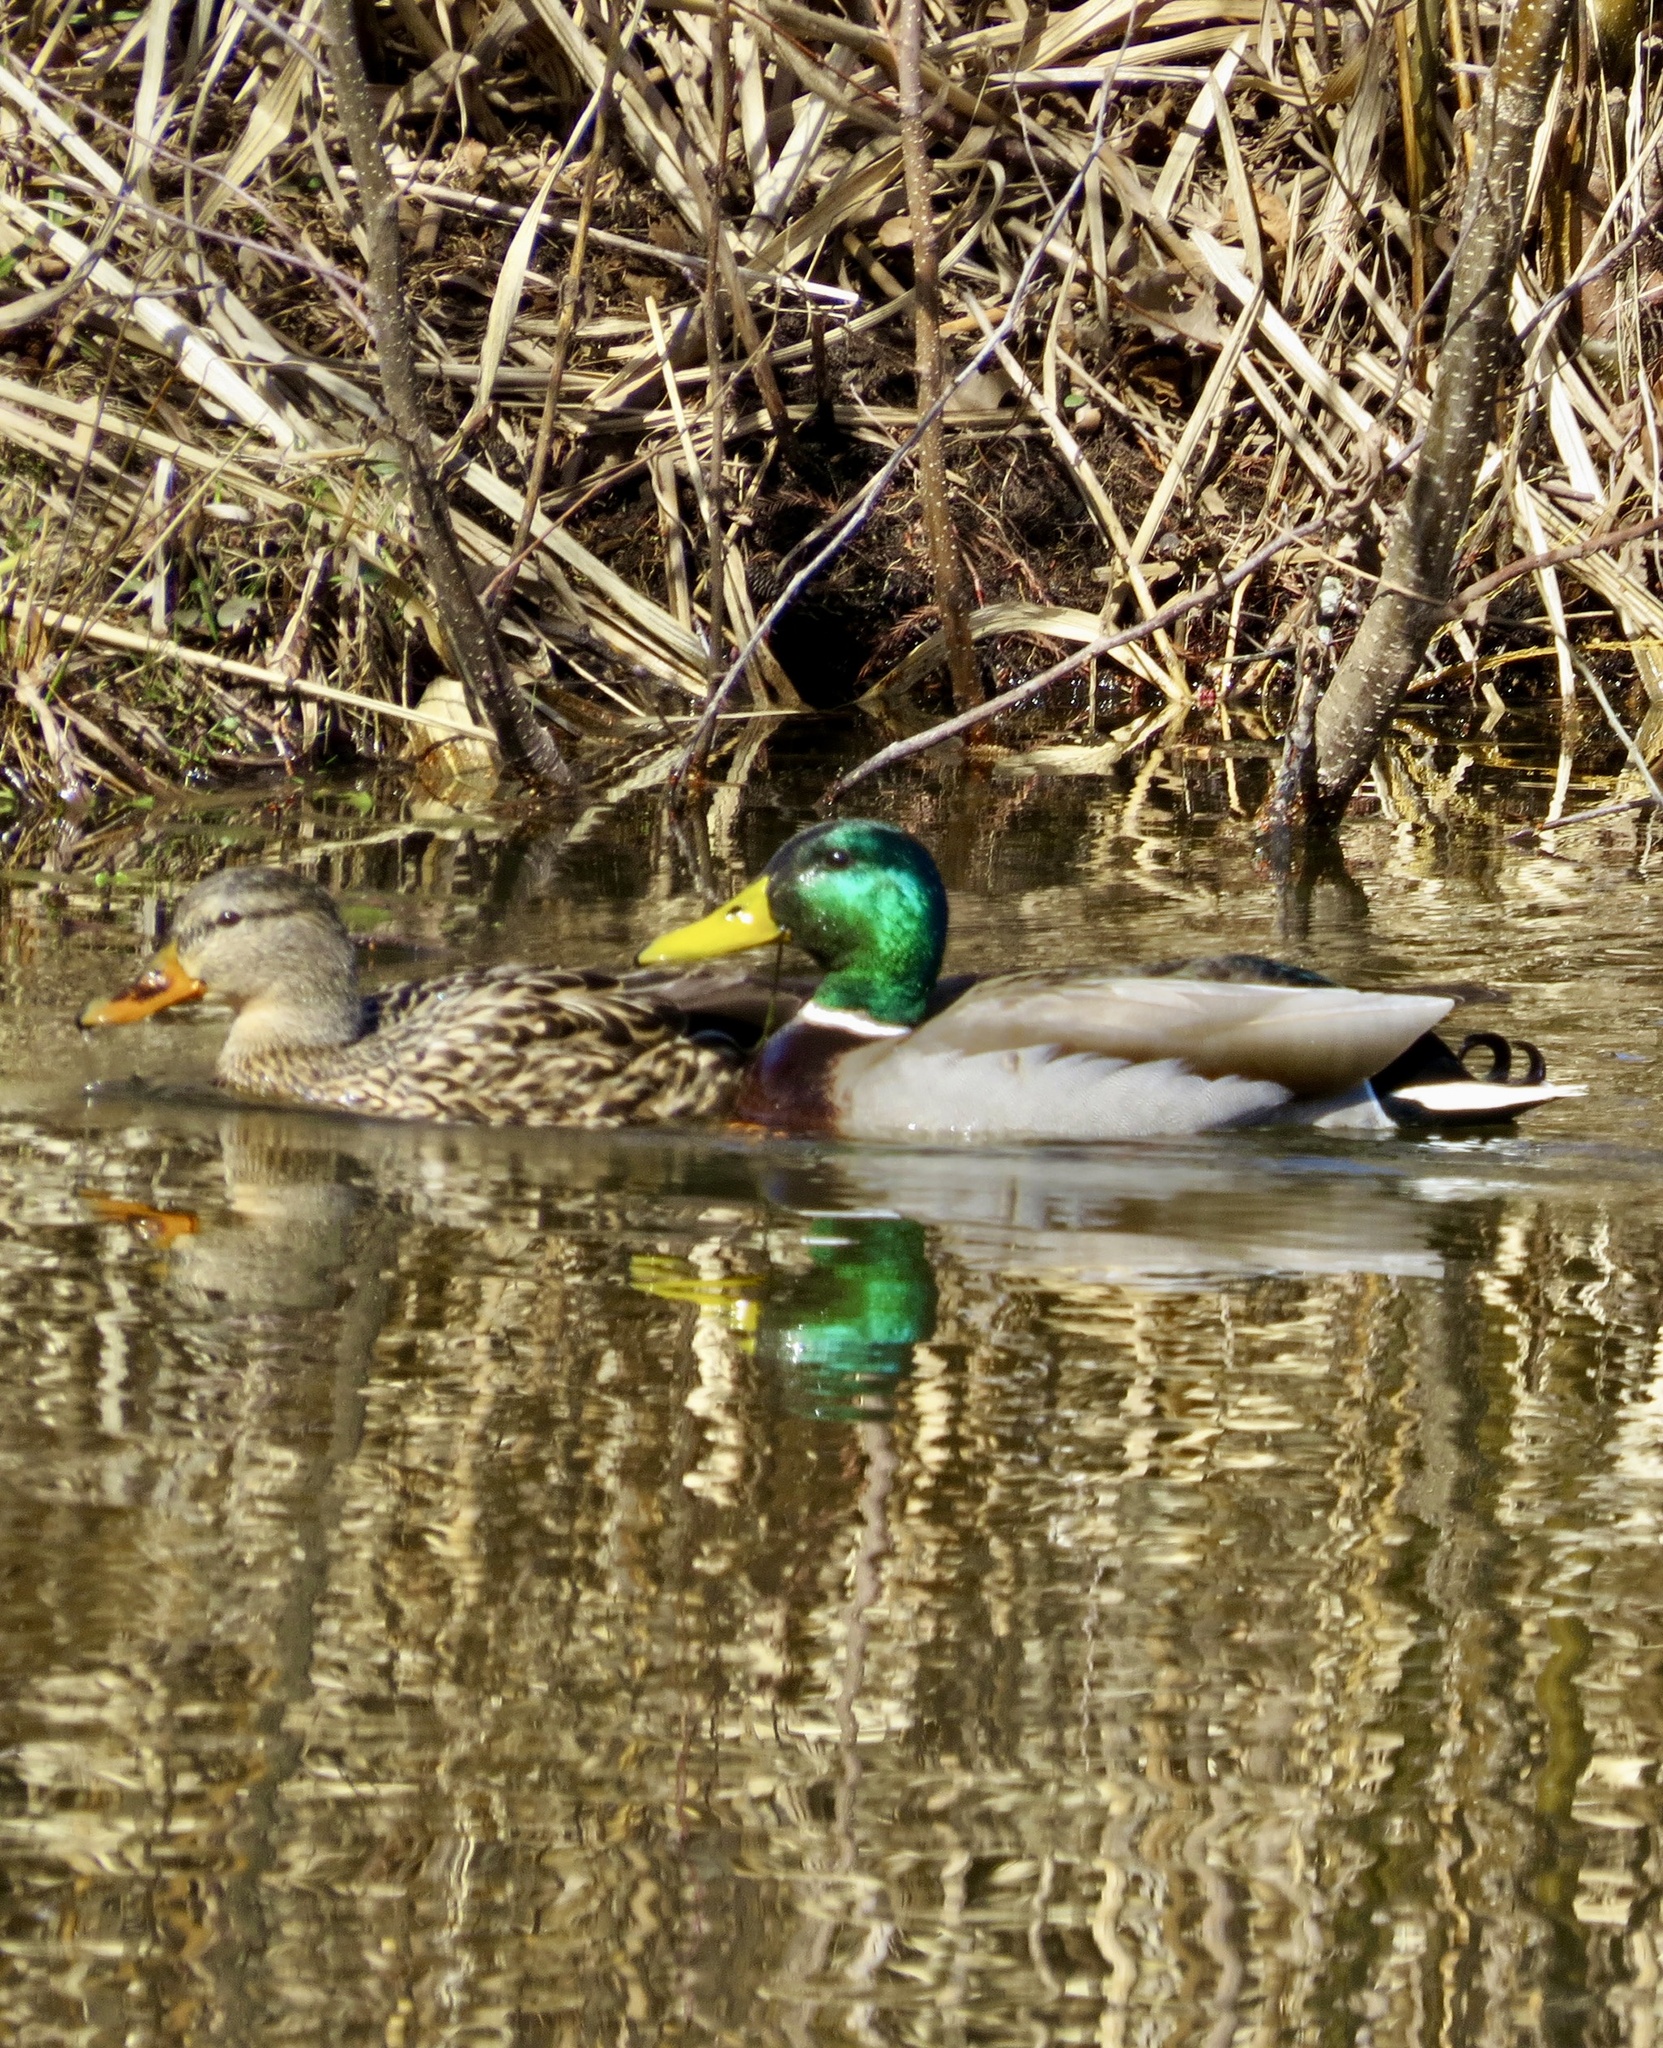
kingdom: Animalia
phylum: Chordata
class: Aves
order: Anseriformes
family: Anatidae
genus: Anas
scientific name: Anas platyrhynchos
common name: Mallard
